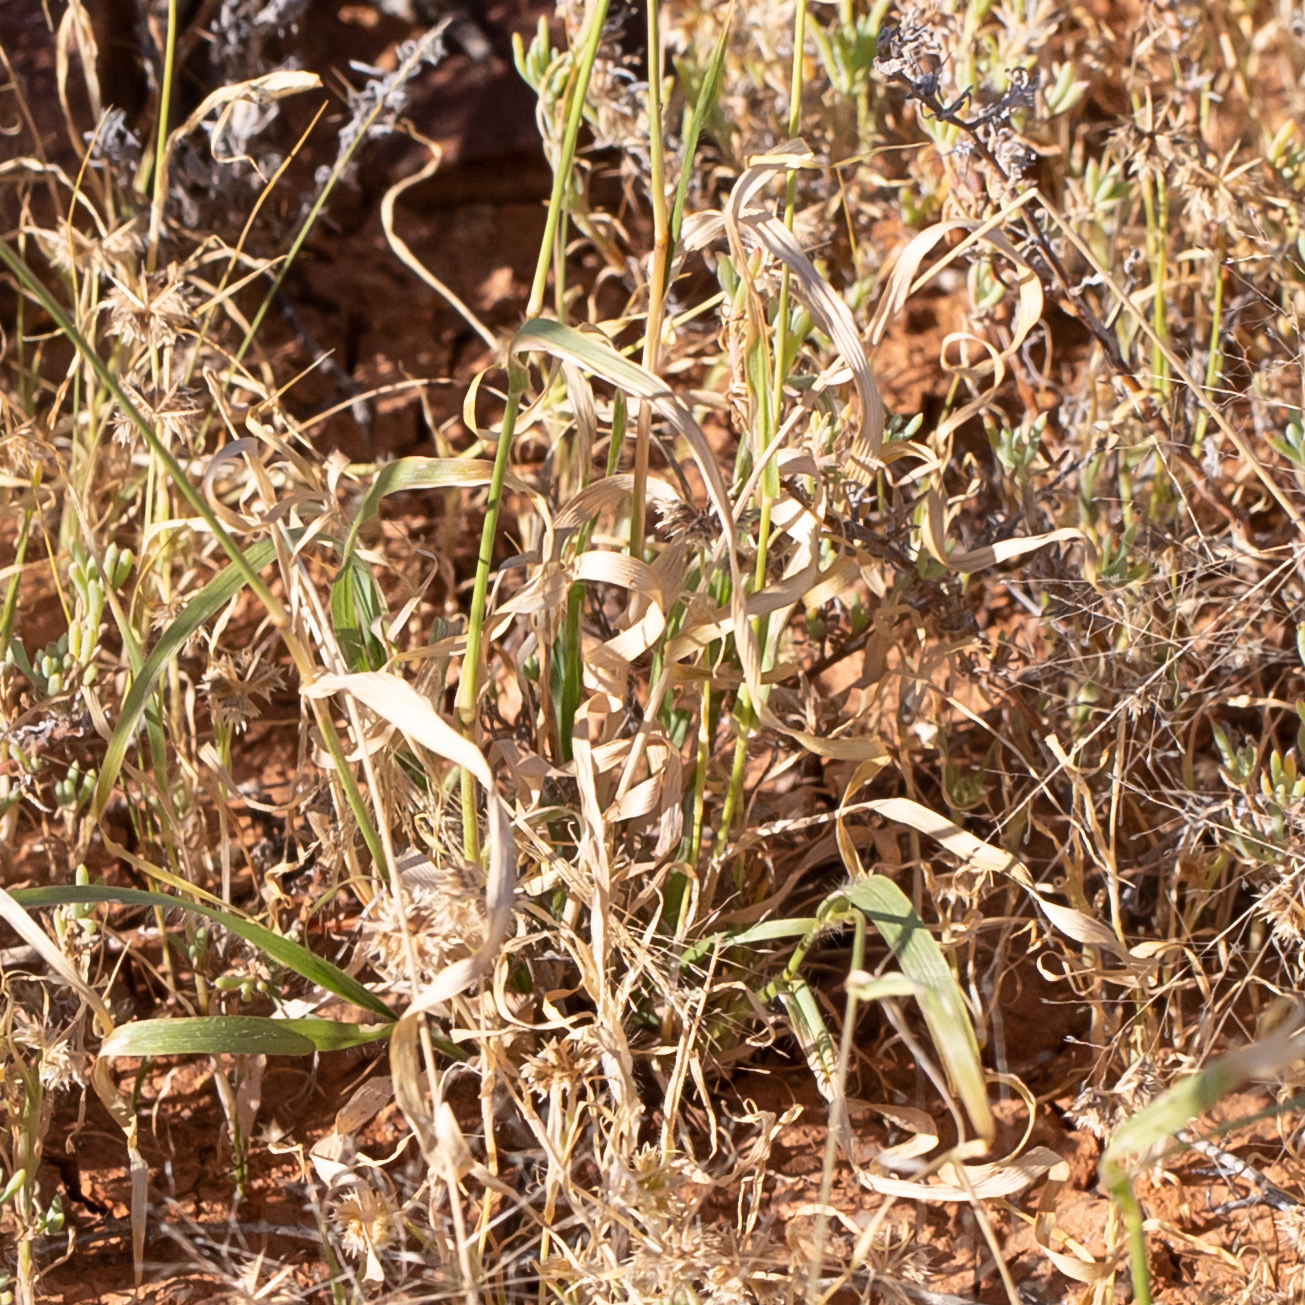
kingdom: Plantae
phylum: Tracheophyta
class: Liliopsida
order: Poales
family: Poaceae
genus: Sporobolus
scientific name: Sporobolus caroli
